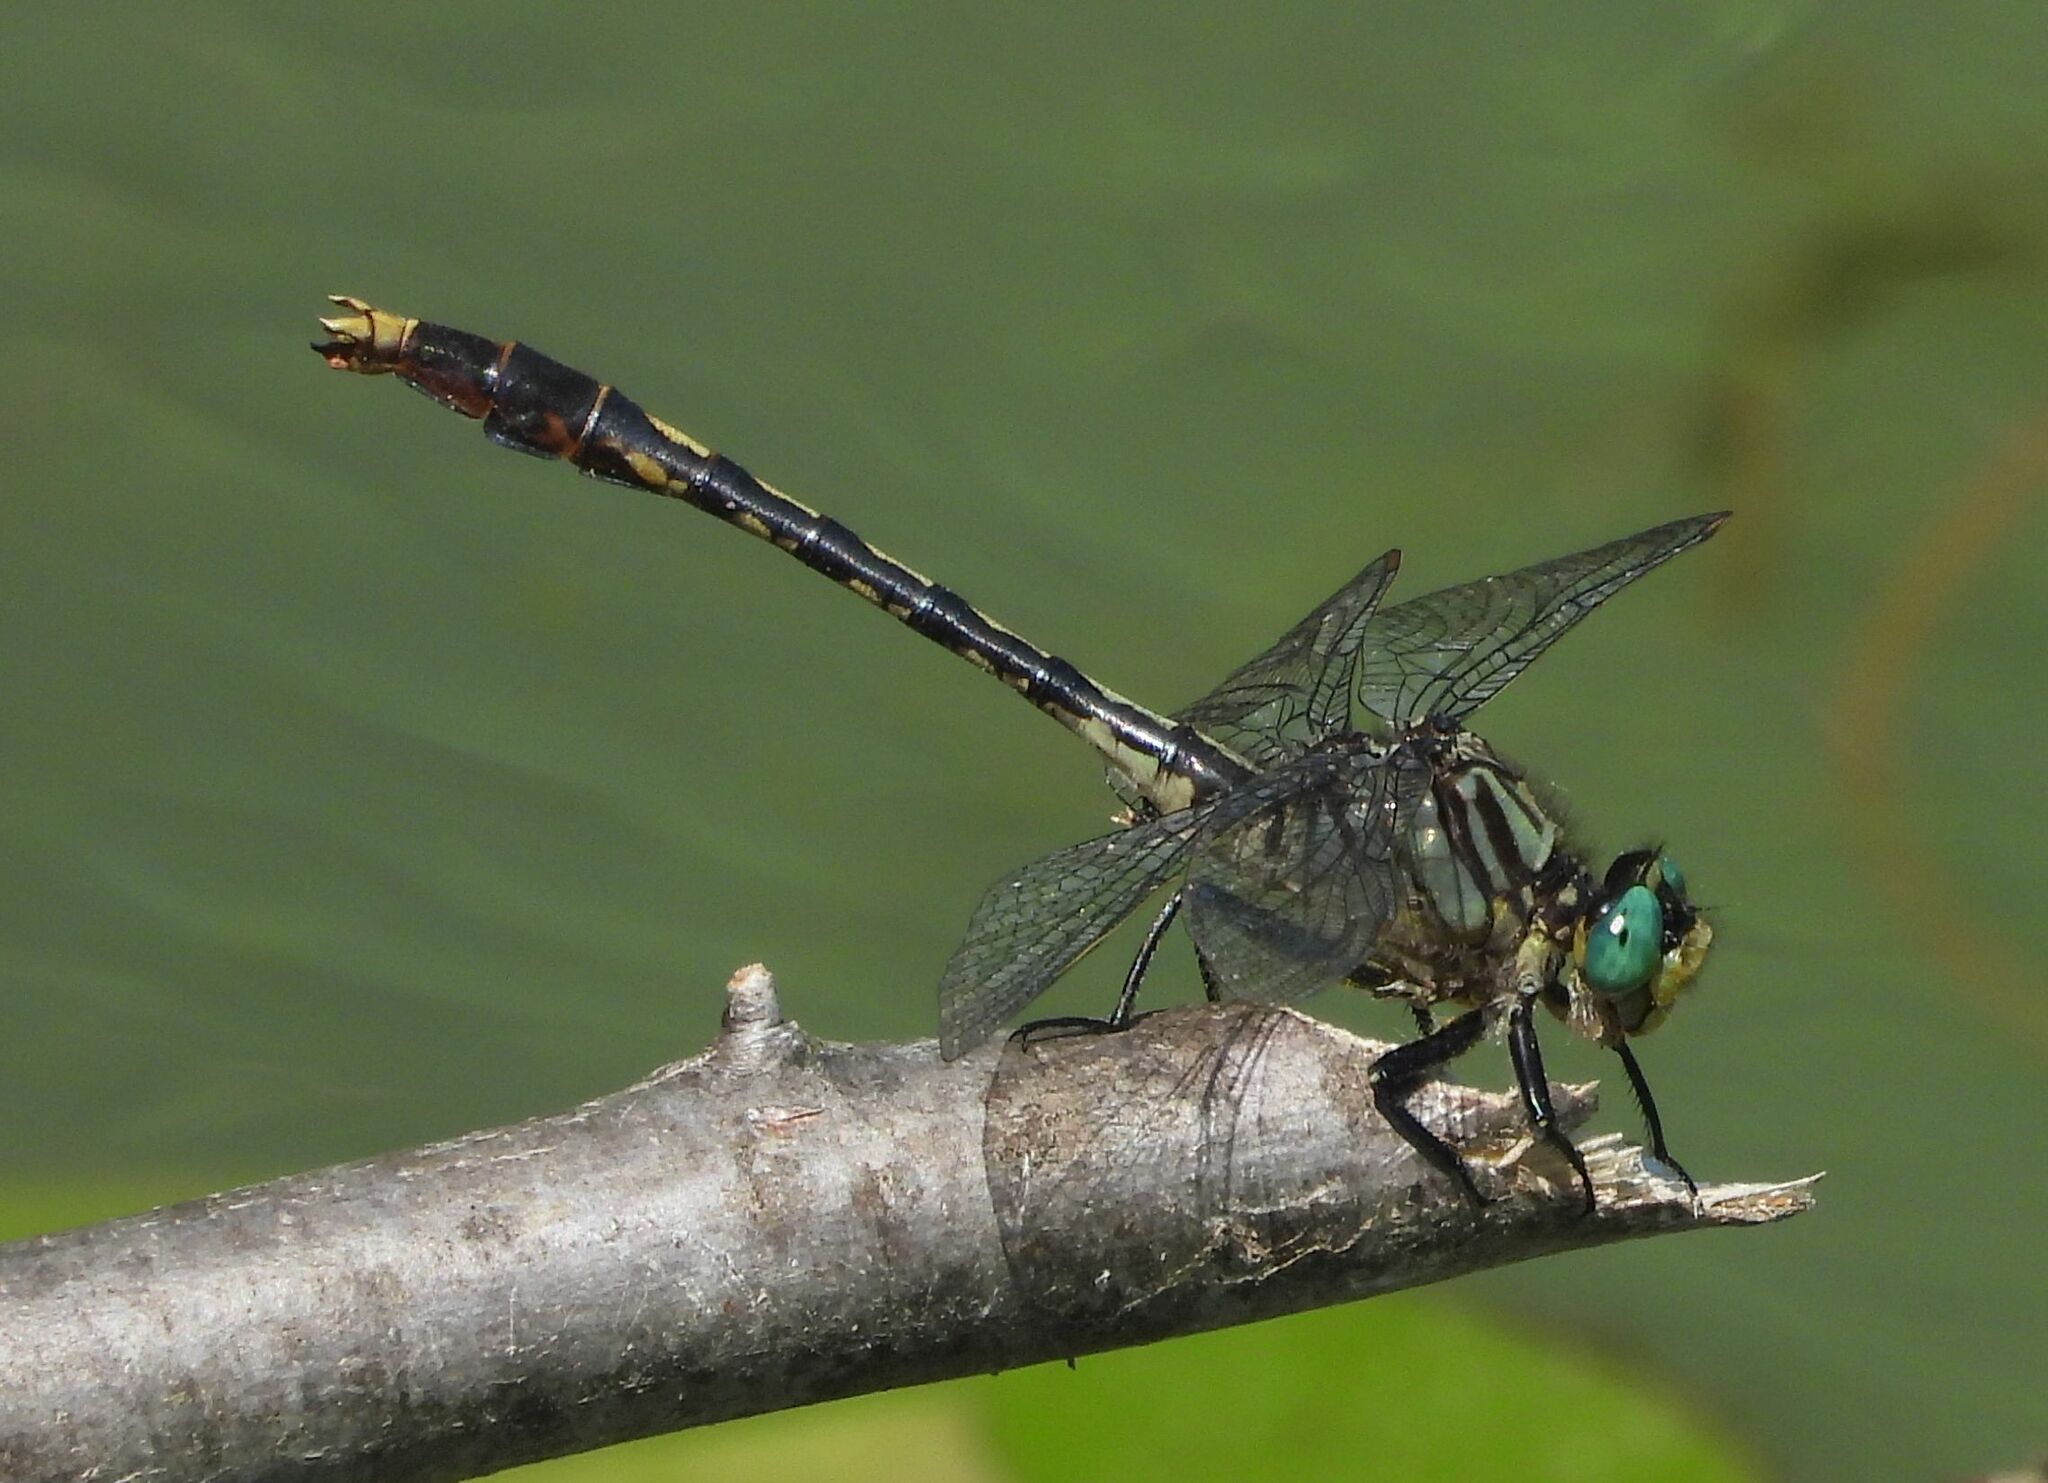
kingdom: Animalia
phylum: Arthropoda
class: Insecta
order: Odonata
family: Gomphidae
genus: Arigomphus
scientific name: Arigomphus villosipes
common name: Unicorn clubtail
